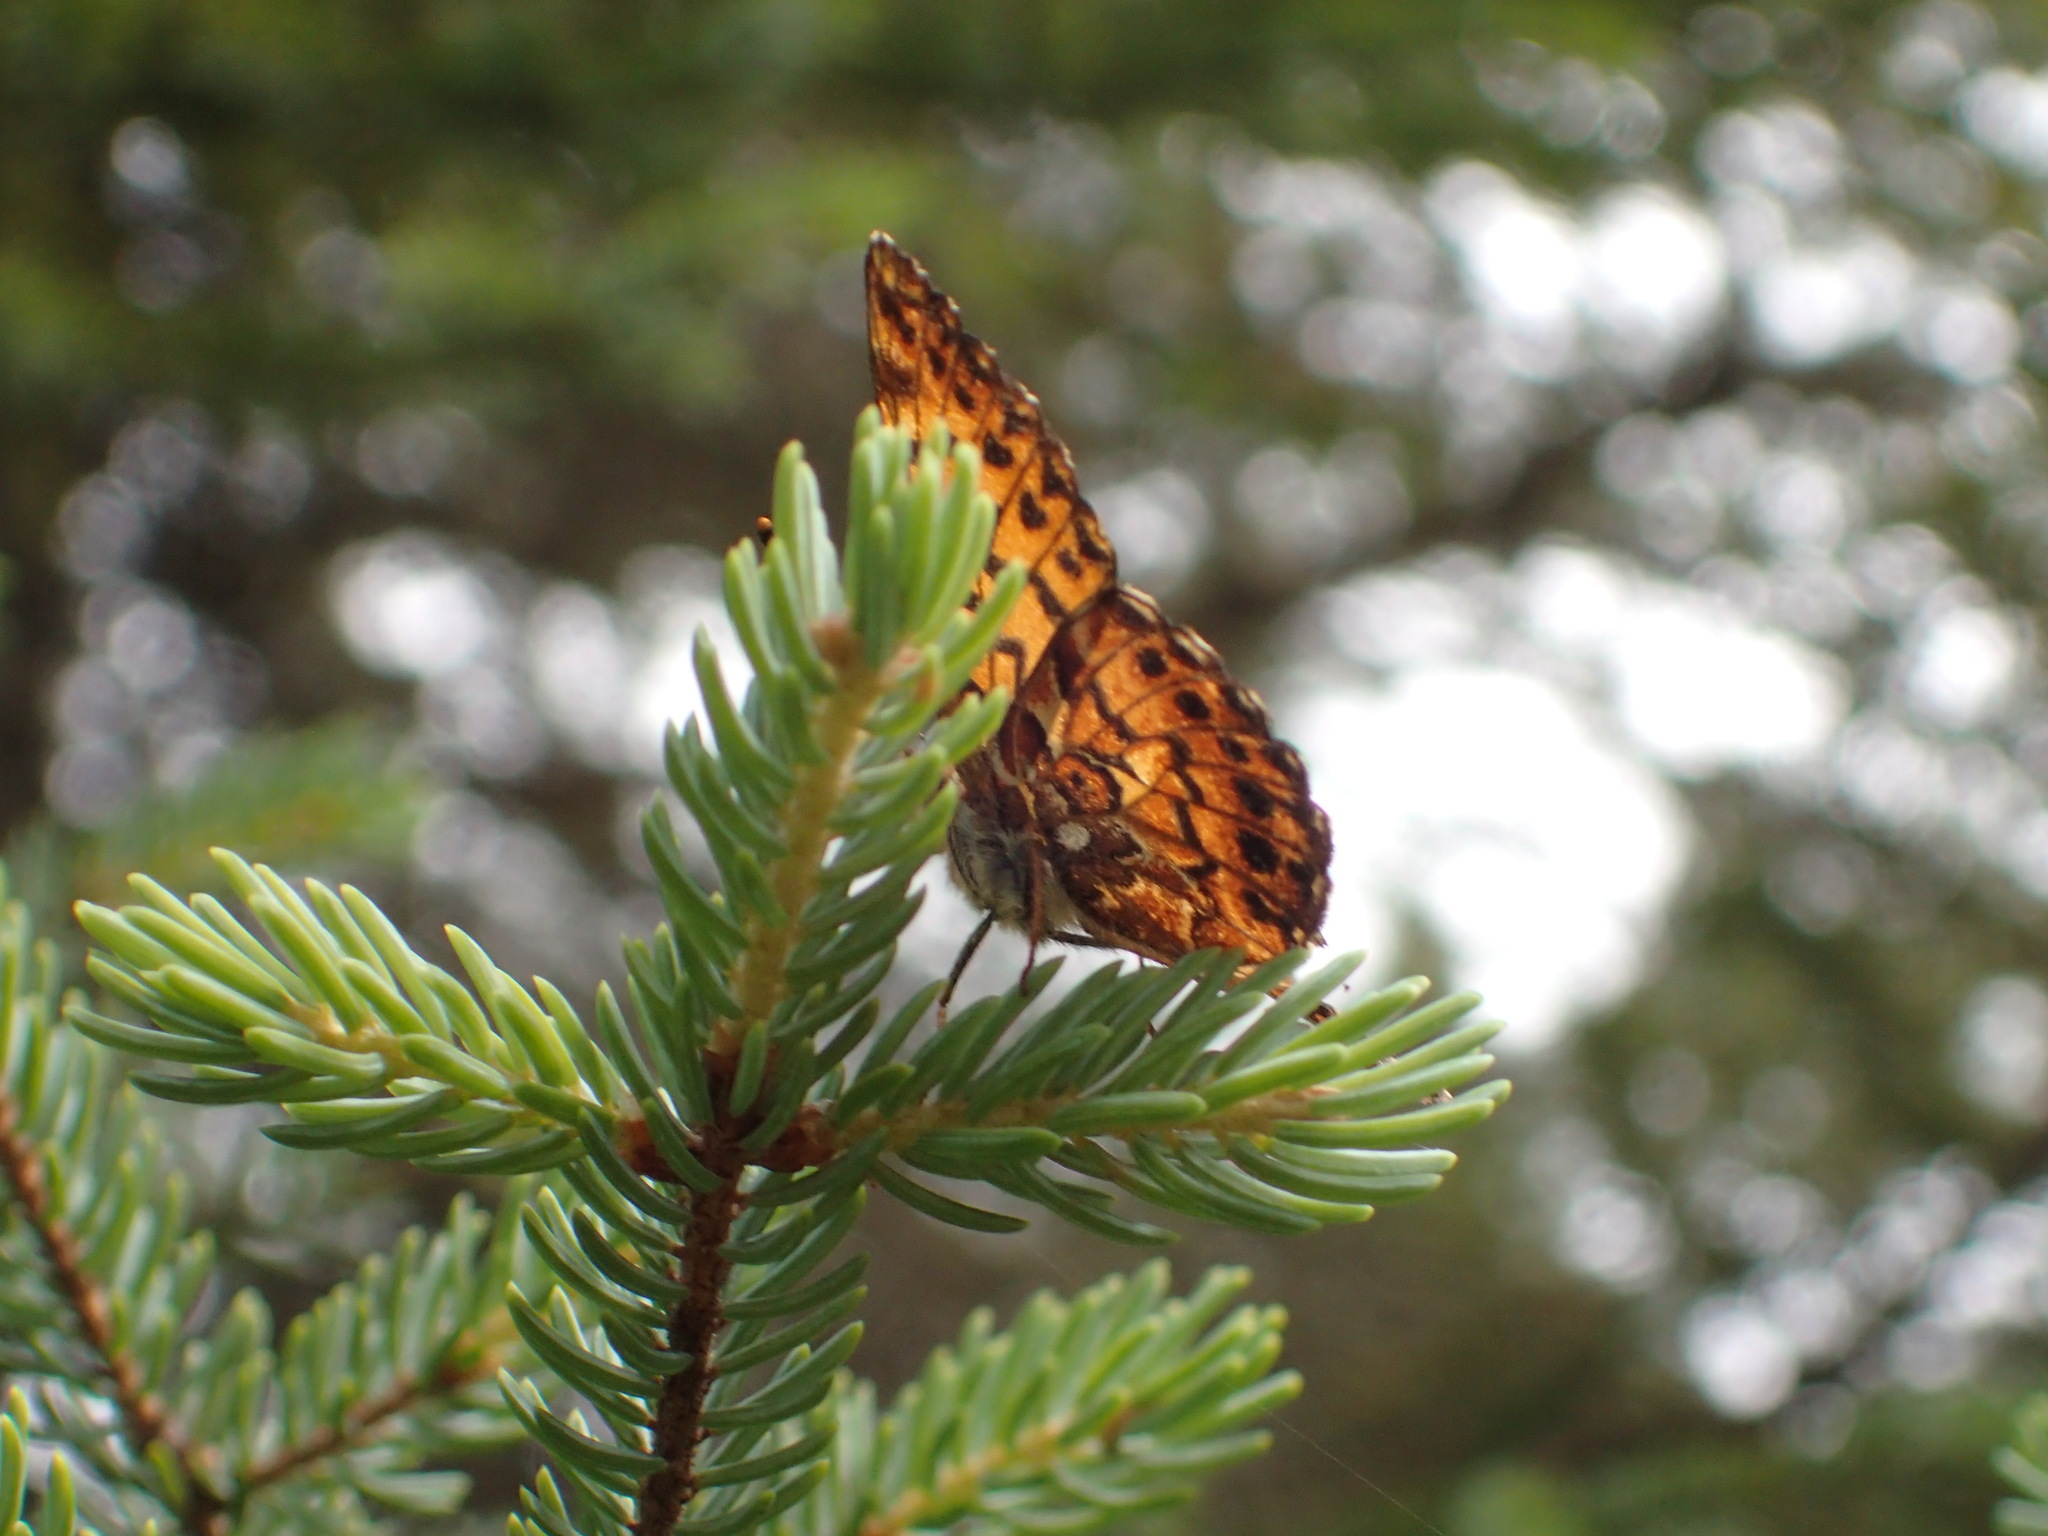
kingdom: Animalia
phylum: Arthropoda
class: Insecta
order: Lepidoptera
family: Nymphalidae
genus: Boloria
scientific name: Boloria chariclea
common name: Arctic fritillary
